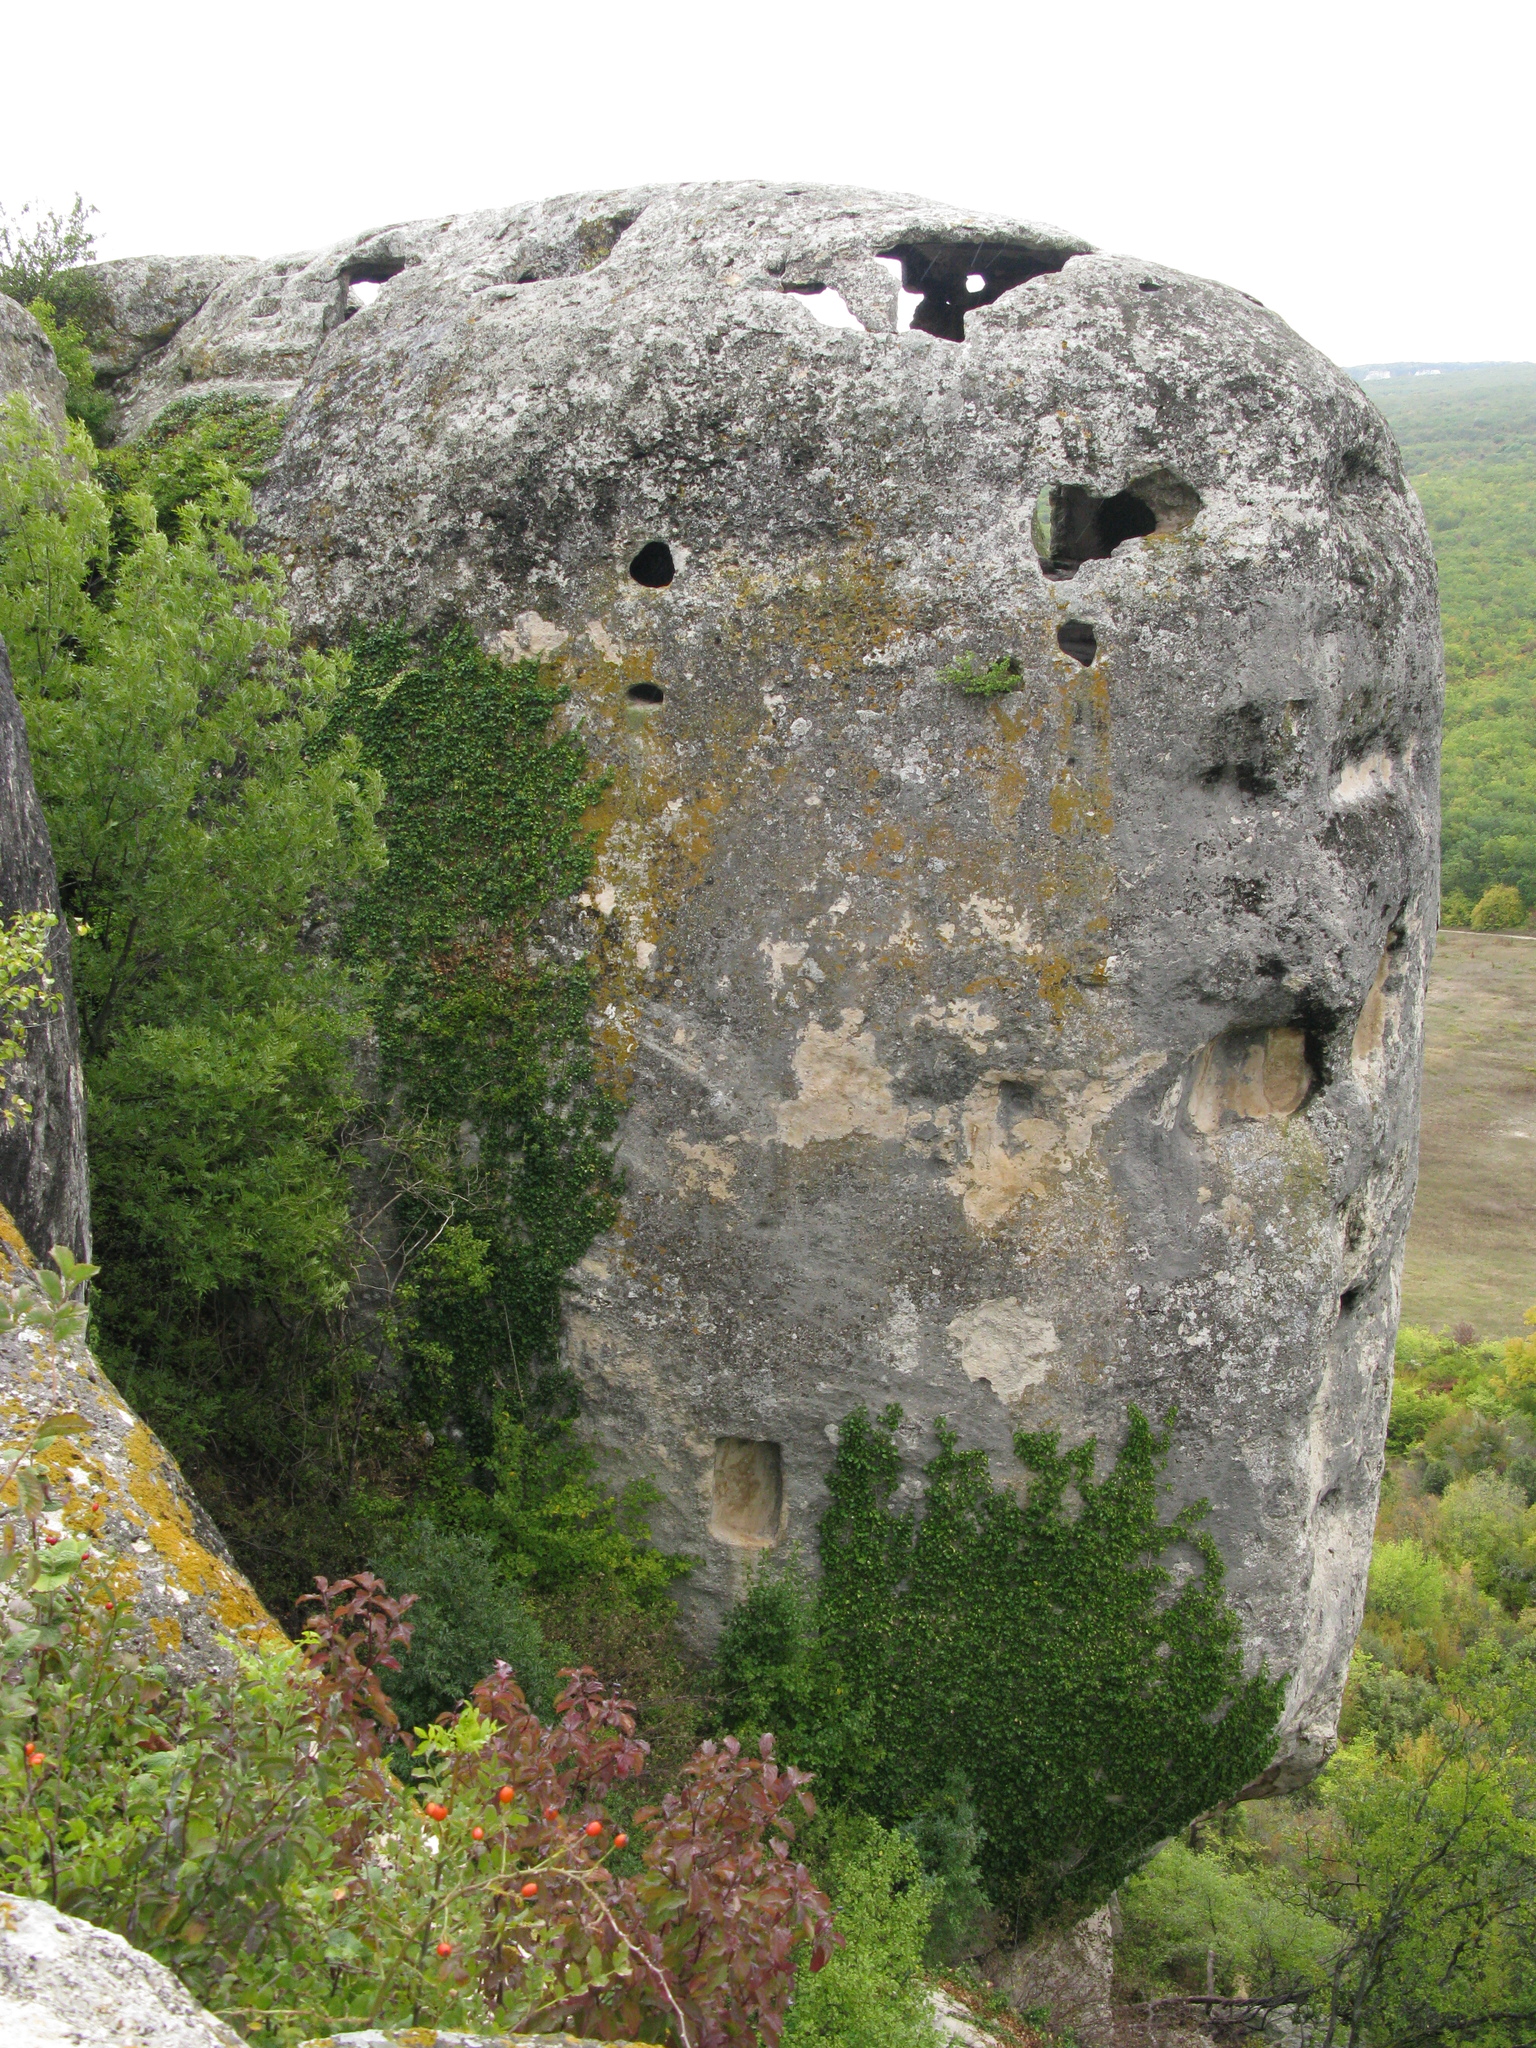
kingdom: Plantae
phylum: Tracheophyta
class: Magnoliopsida
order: Apiales
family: Araliaceae
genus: Hedera
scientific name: Hedera helix
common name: Ivy
